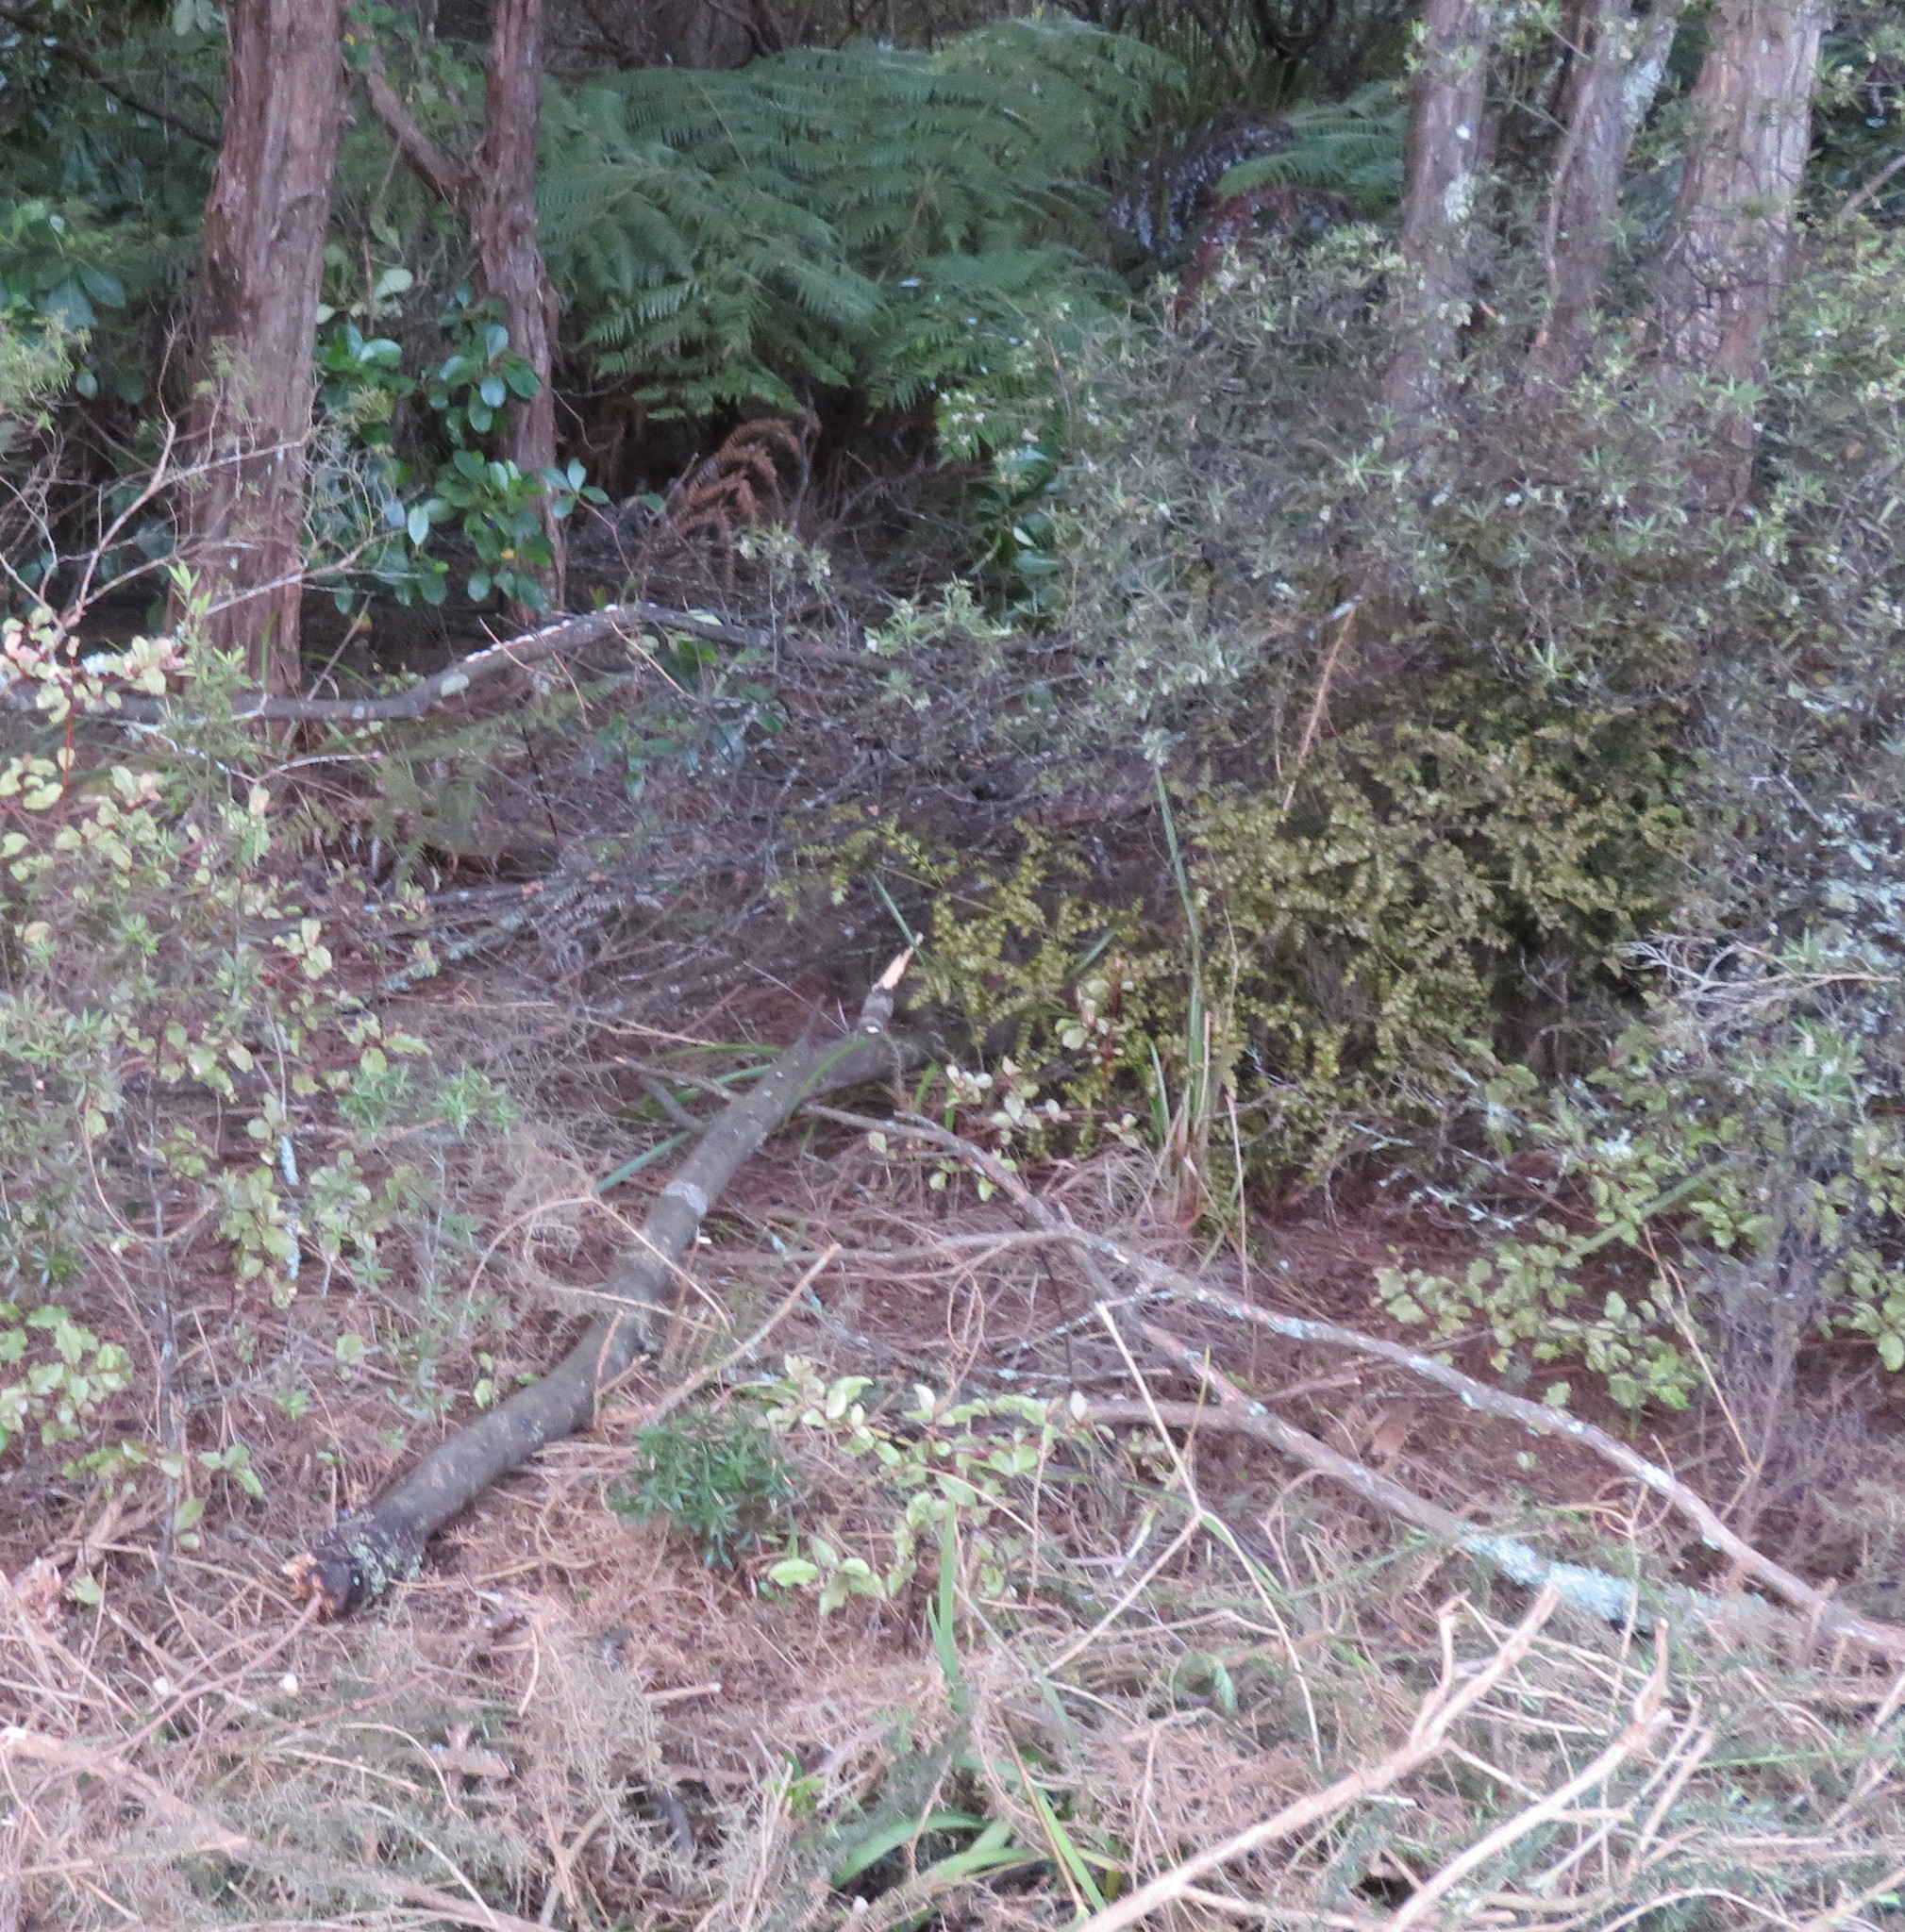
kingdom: Plantae
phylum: Tracheophyta
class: Pinopsida
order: Pinales
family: Phyllocladaceae
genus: Phyllocladus
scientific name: Phyllocladus trichomanoides
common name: Celery pine
